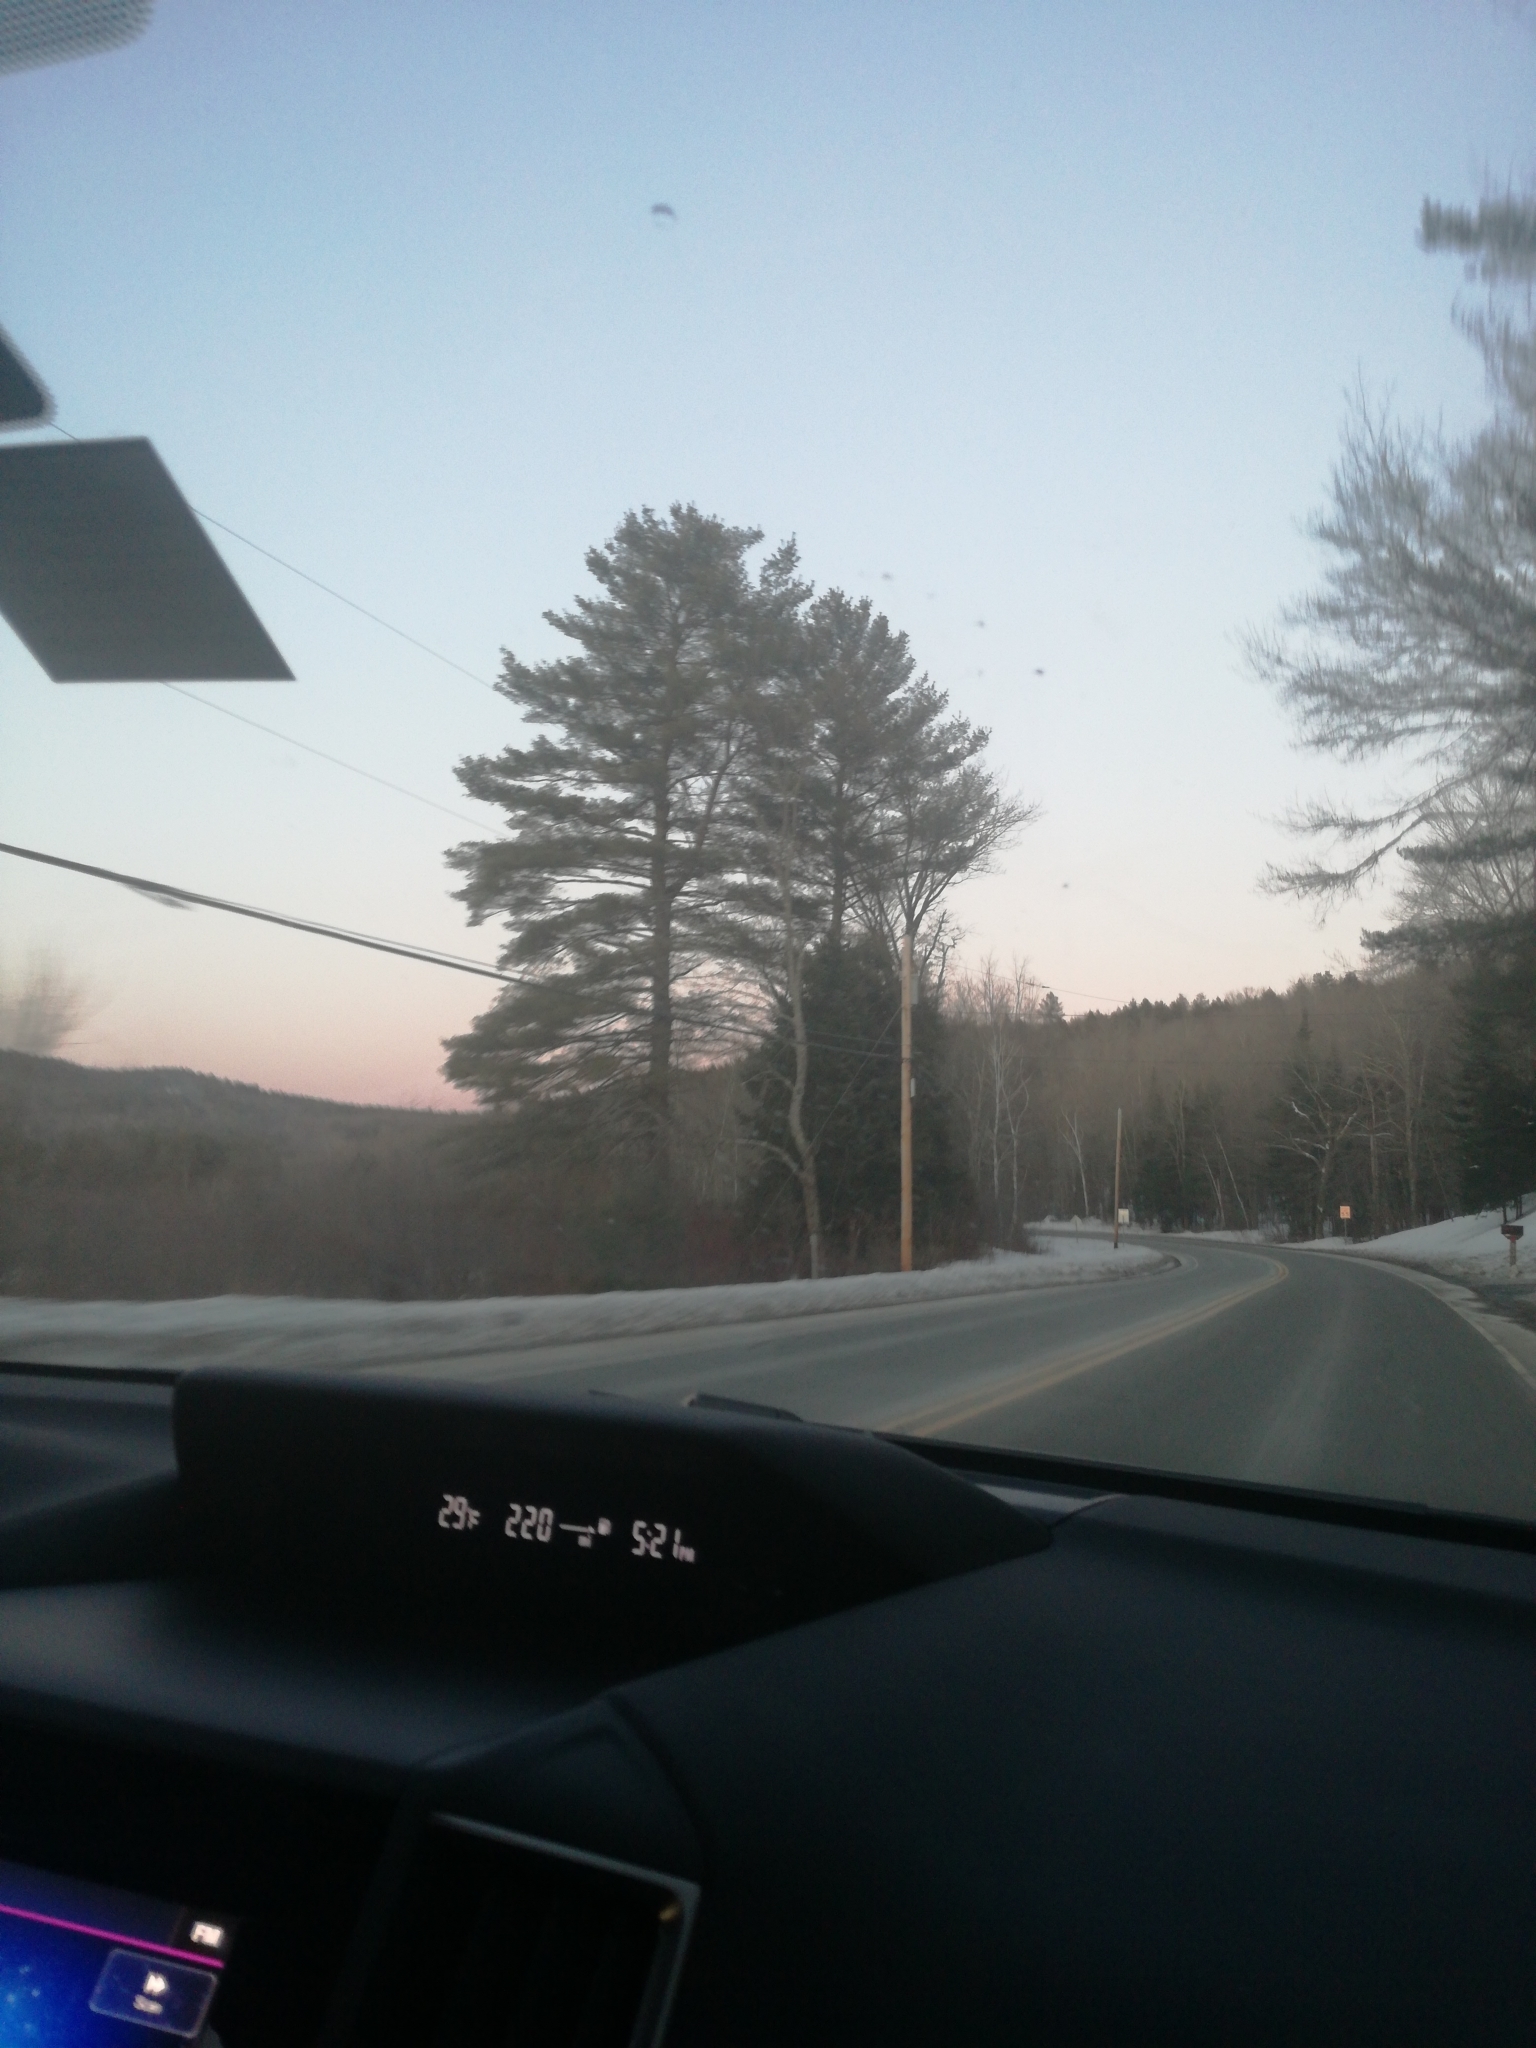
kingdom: Plantae
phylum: Tracheophyta
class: Pinopsida
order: Pinales
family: Pinaceae
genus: Pinus
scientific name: Pinus strobus
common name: Weymouth pine
